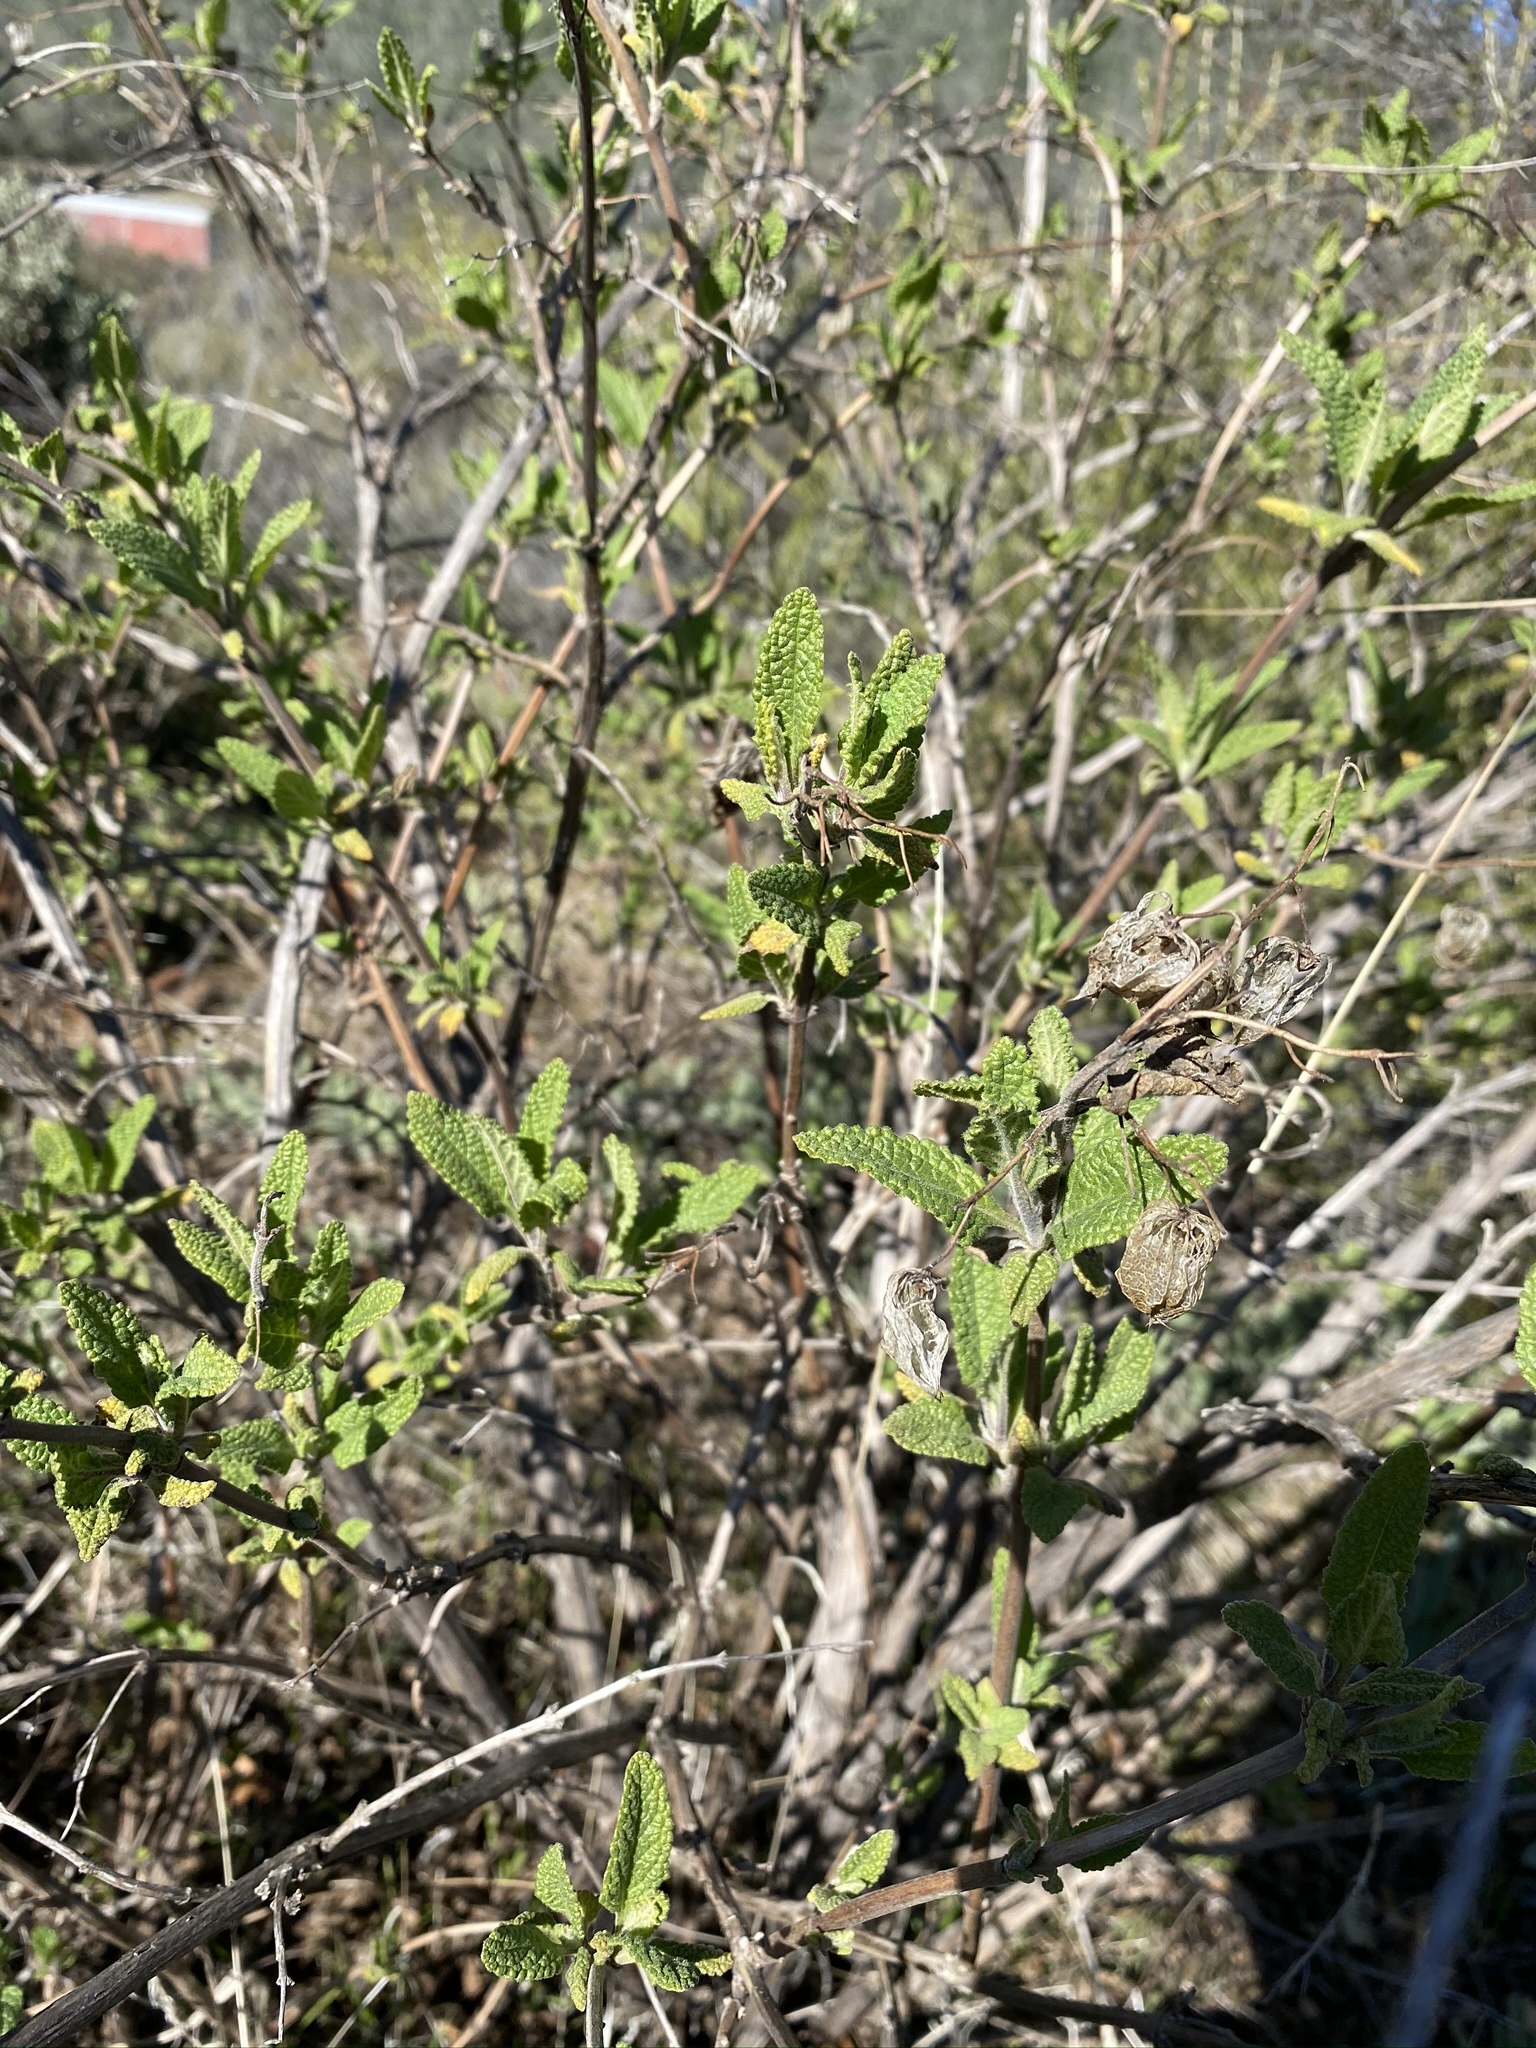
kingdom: Plantae
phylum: Tracheophyta
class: Magnoliopsida
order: Lamiales
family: Lamiaceae
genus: Lepechinia
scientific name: Lepechinia calycina
